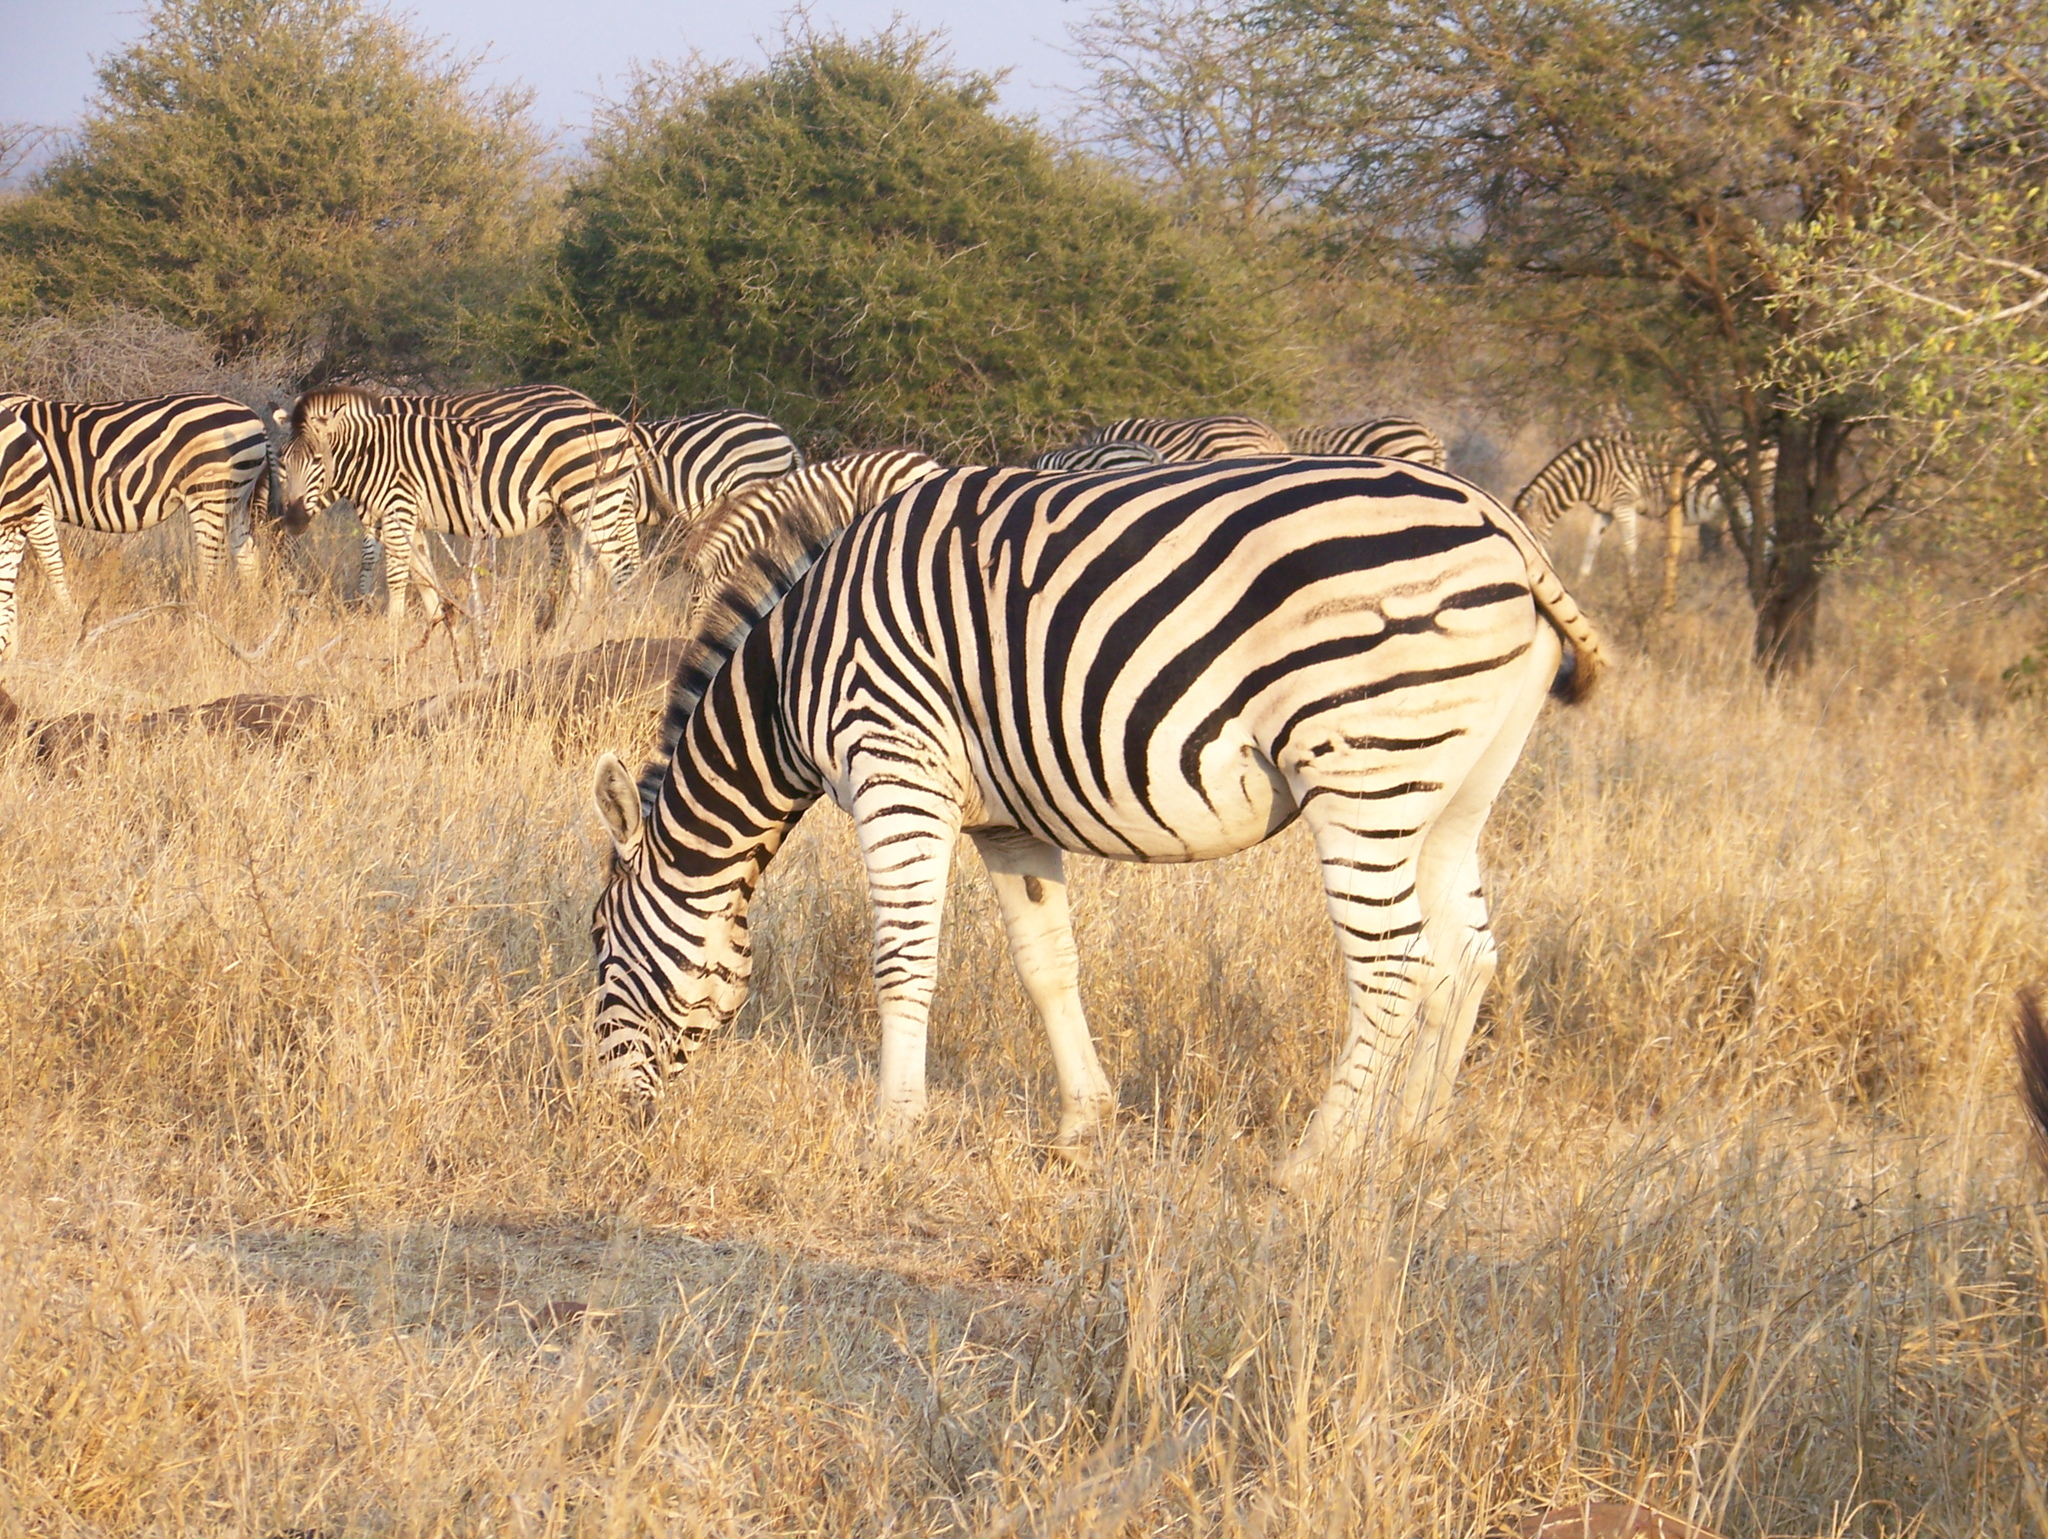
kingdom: Animalia
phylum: Chordata
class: Mammalia
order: Perissodactyla
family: Equidae
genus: Equus
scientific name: Equus quagga
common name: Plains zebra
